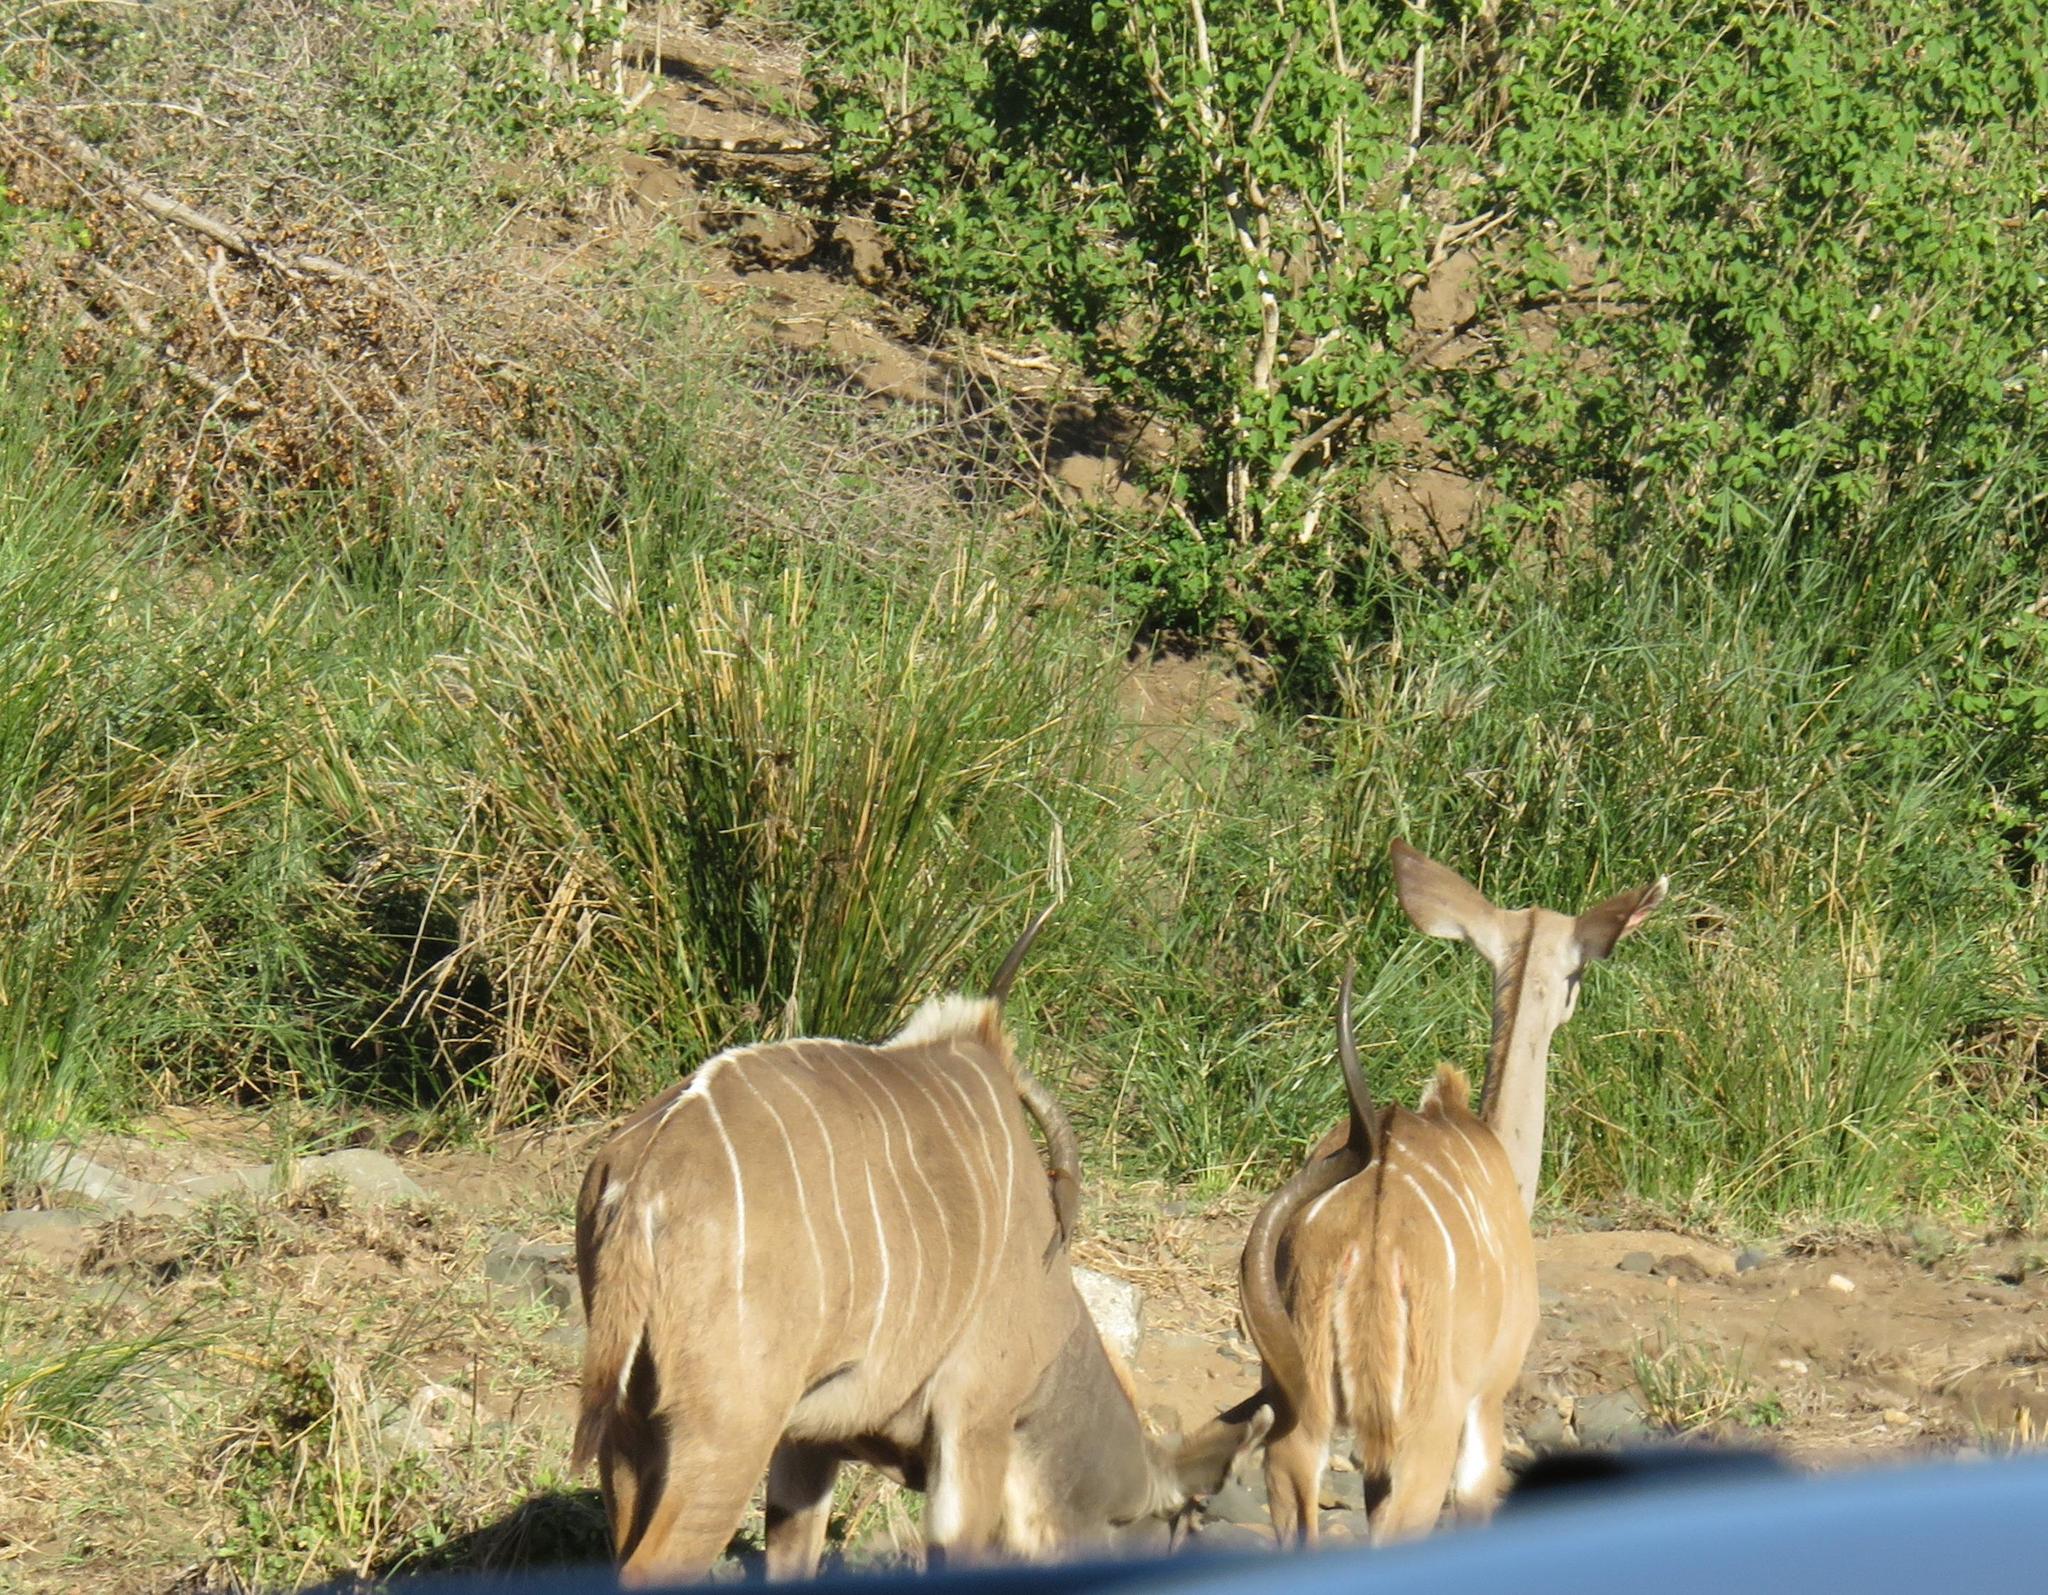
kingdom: Animalia
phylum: Chordata
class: Mammalia
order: Artiodactyla
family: Bovidae
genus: Tragelaphus
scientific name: Tragelaphus strepsiceros
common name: Greater kudu
